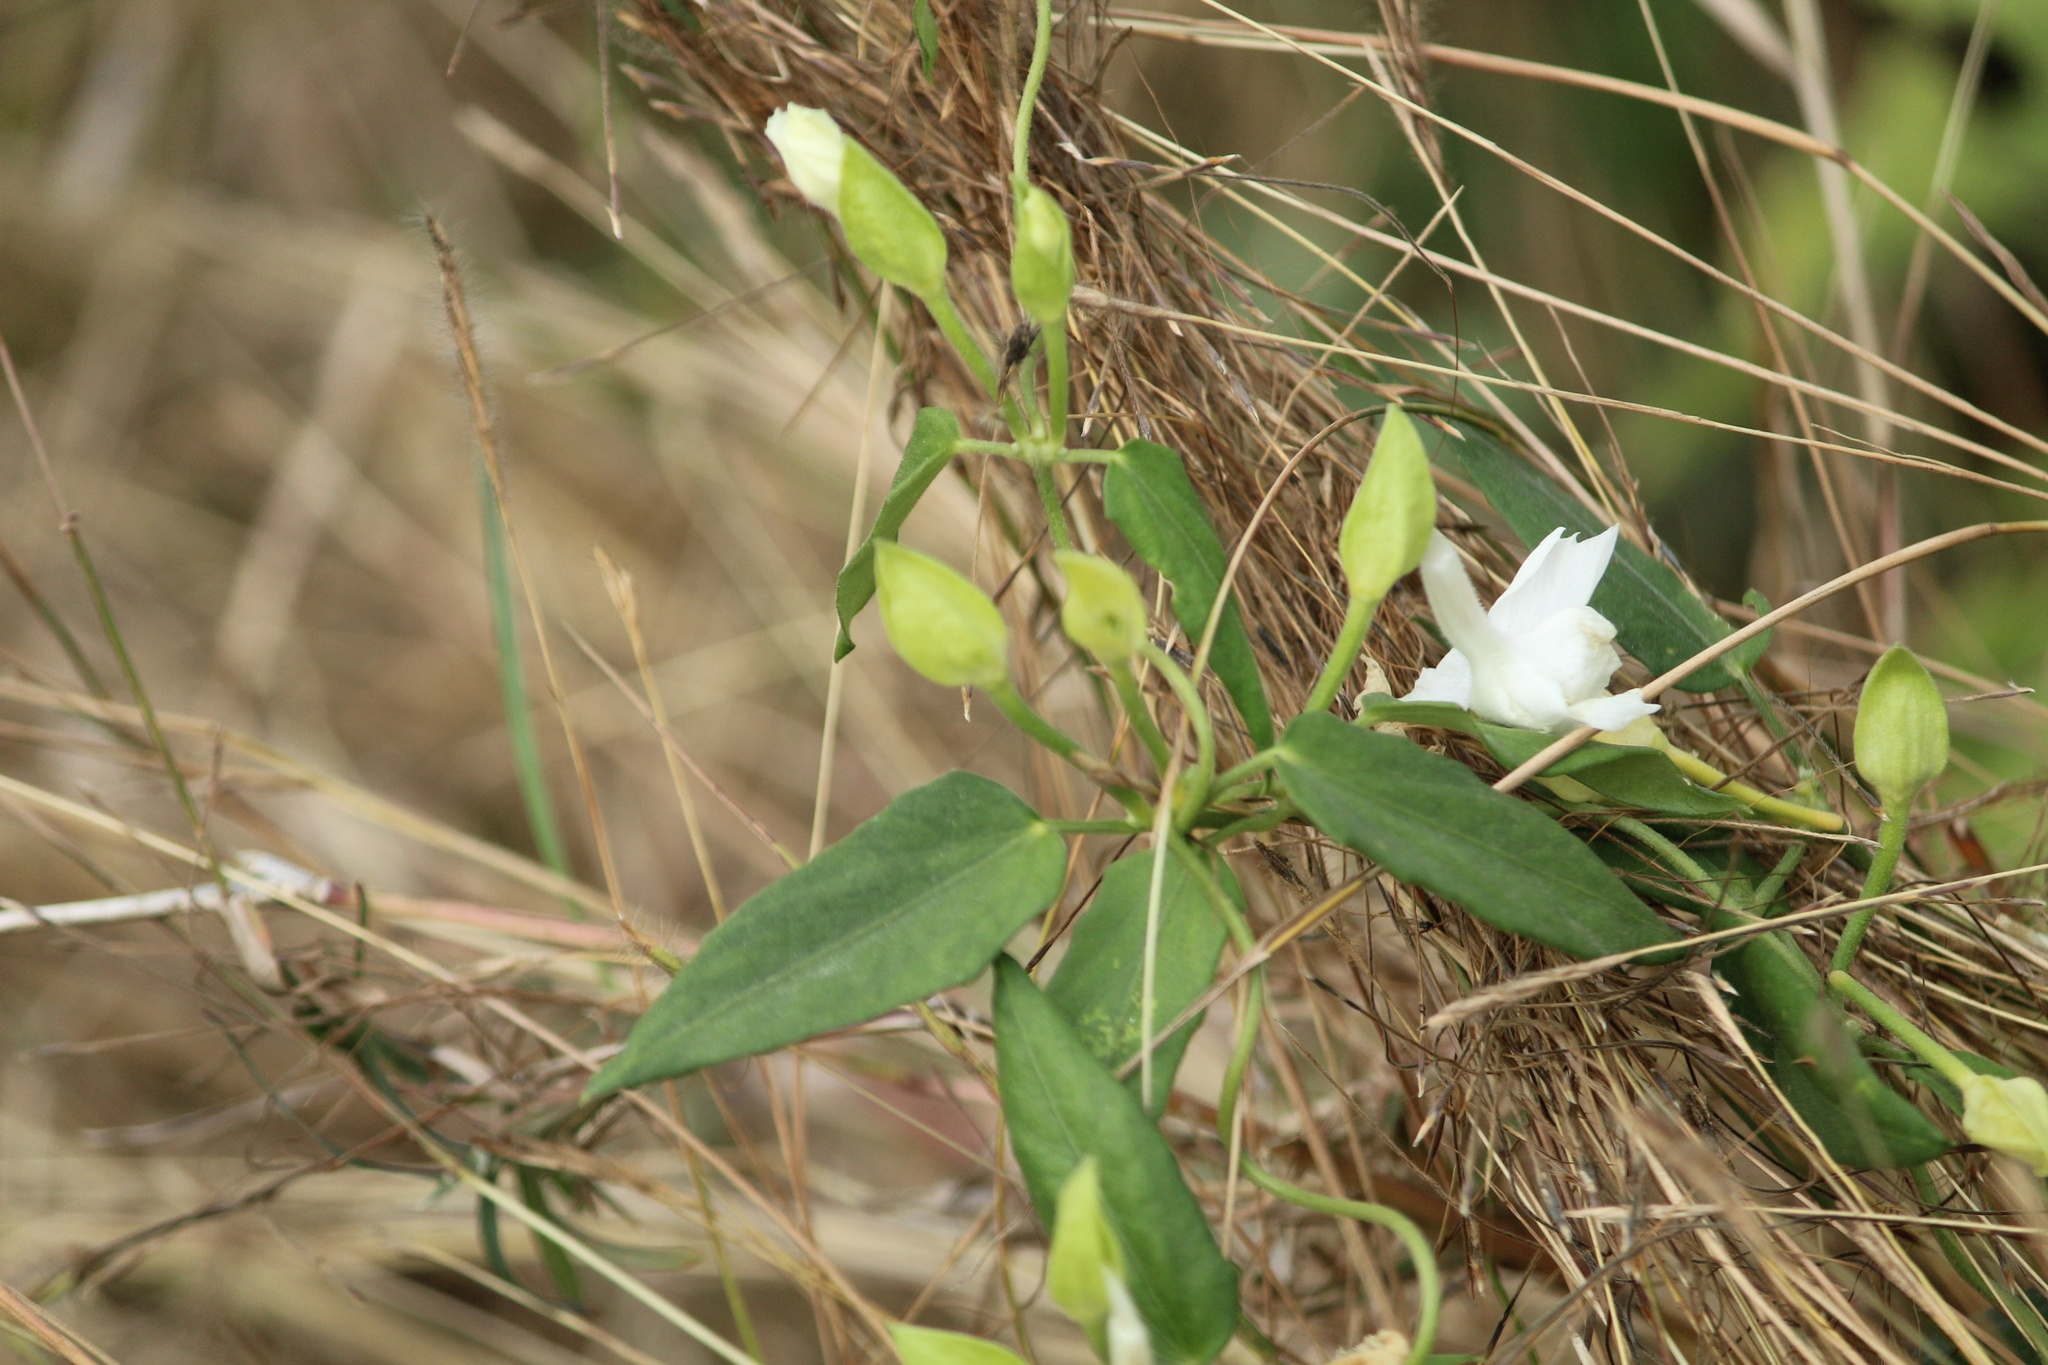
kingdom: Plantae
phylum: Tracheophyta
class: Magnoliopsida
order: Lamiales
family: Acanthaceae
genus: Thunbergia
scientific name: Thunbergia fragrans
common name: Whitelady
